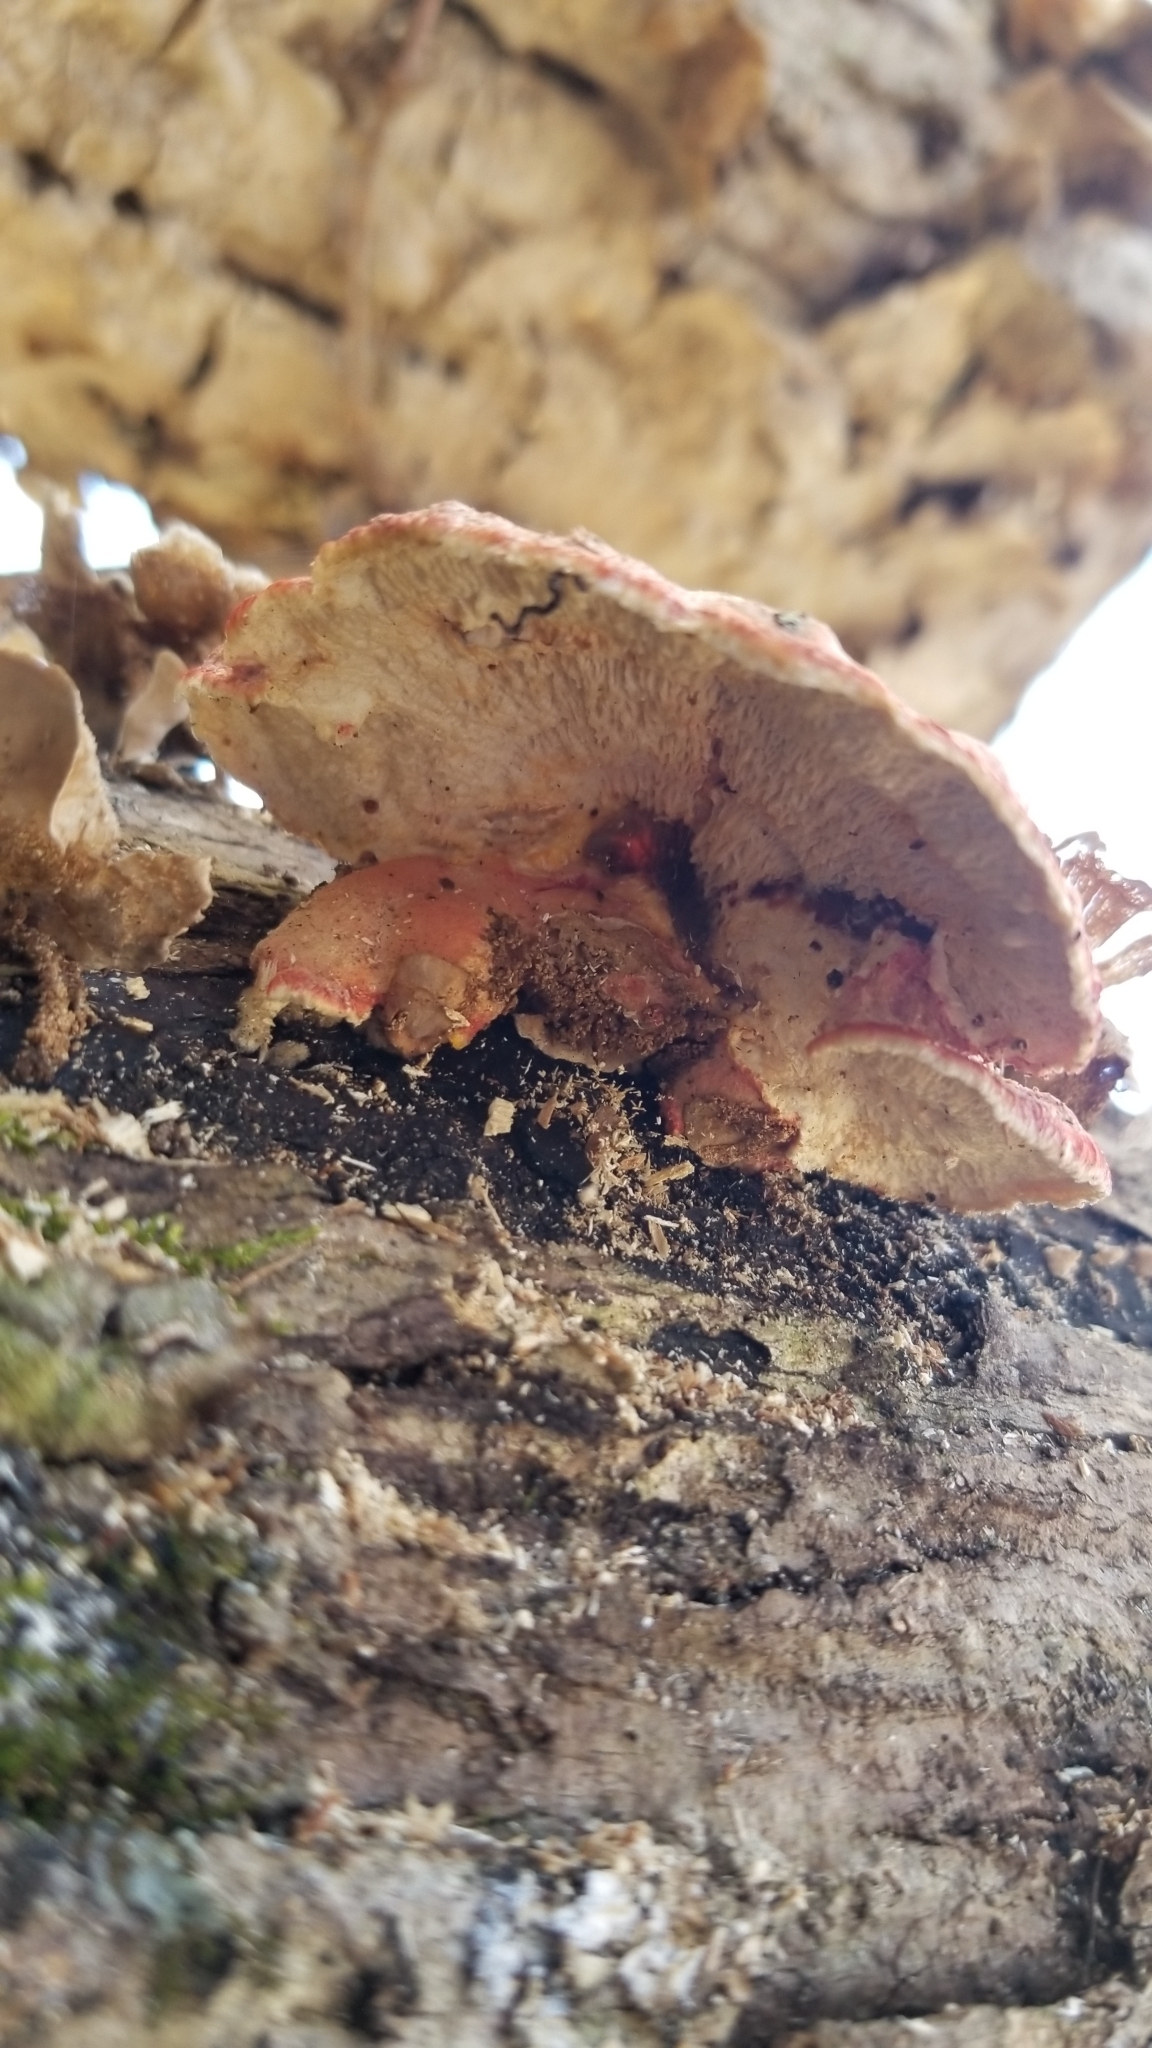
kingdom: Fungi
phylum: Basidiomycota
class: Agaricomycetes
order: Polyporales
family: Irpicaceae
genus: Byssomerulius
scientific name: Byssomerulius incarnatus
